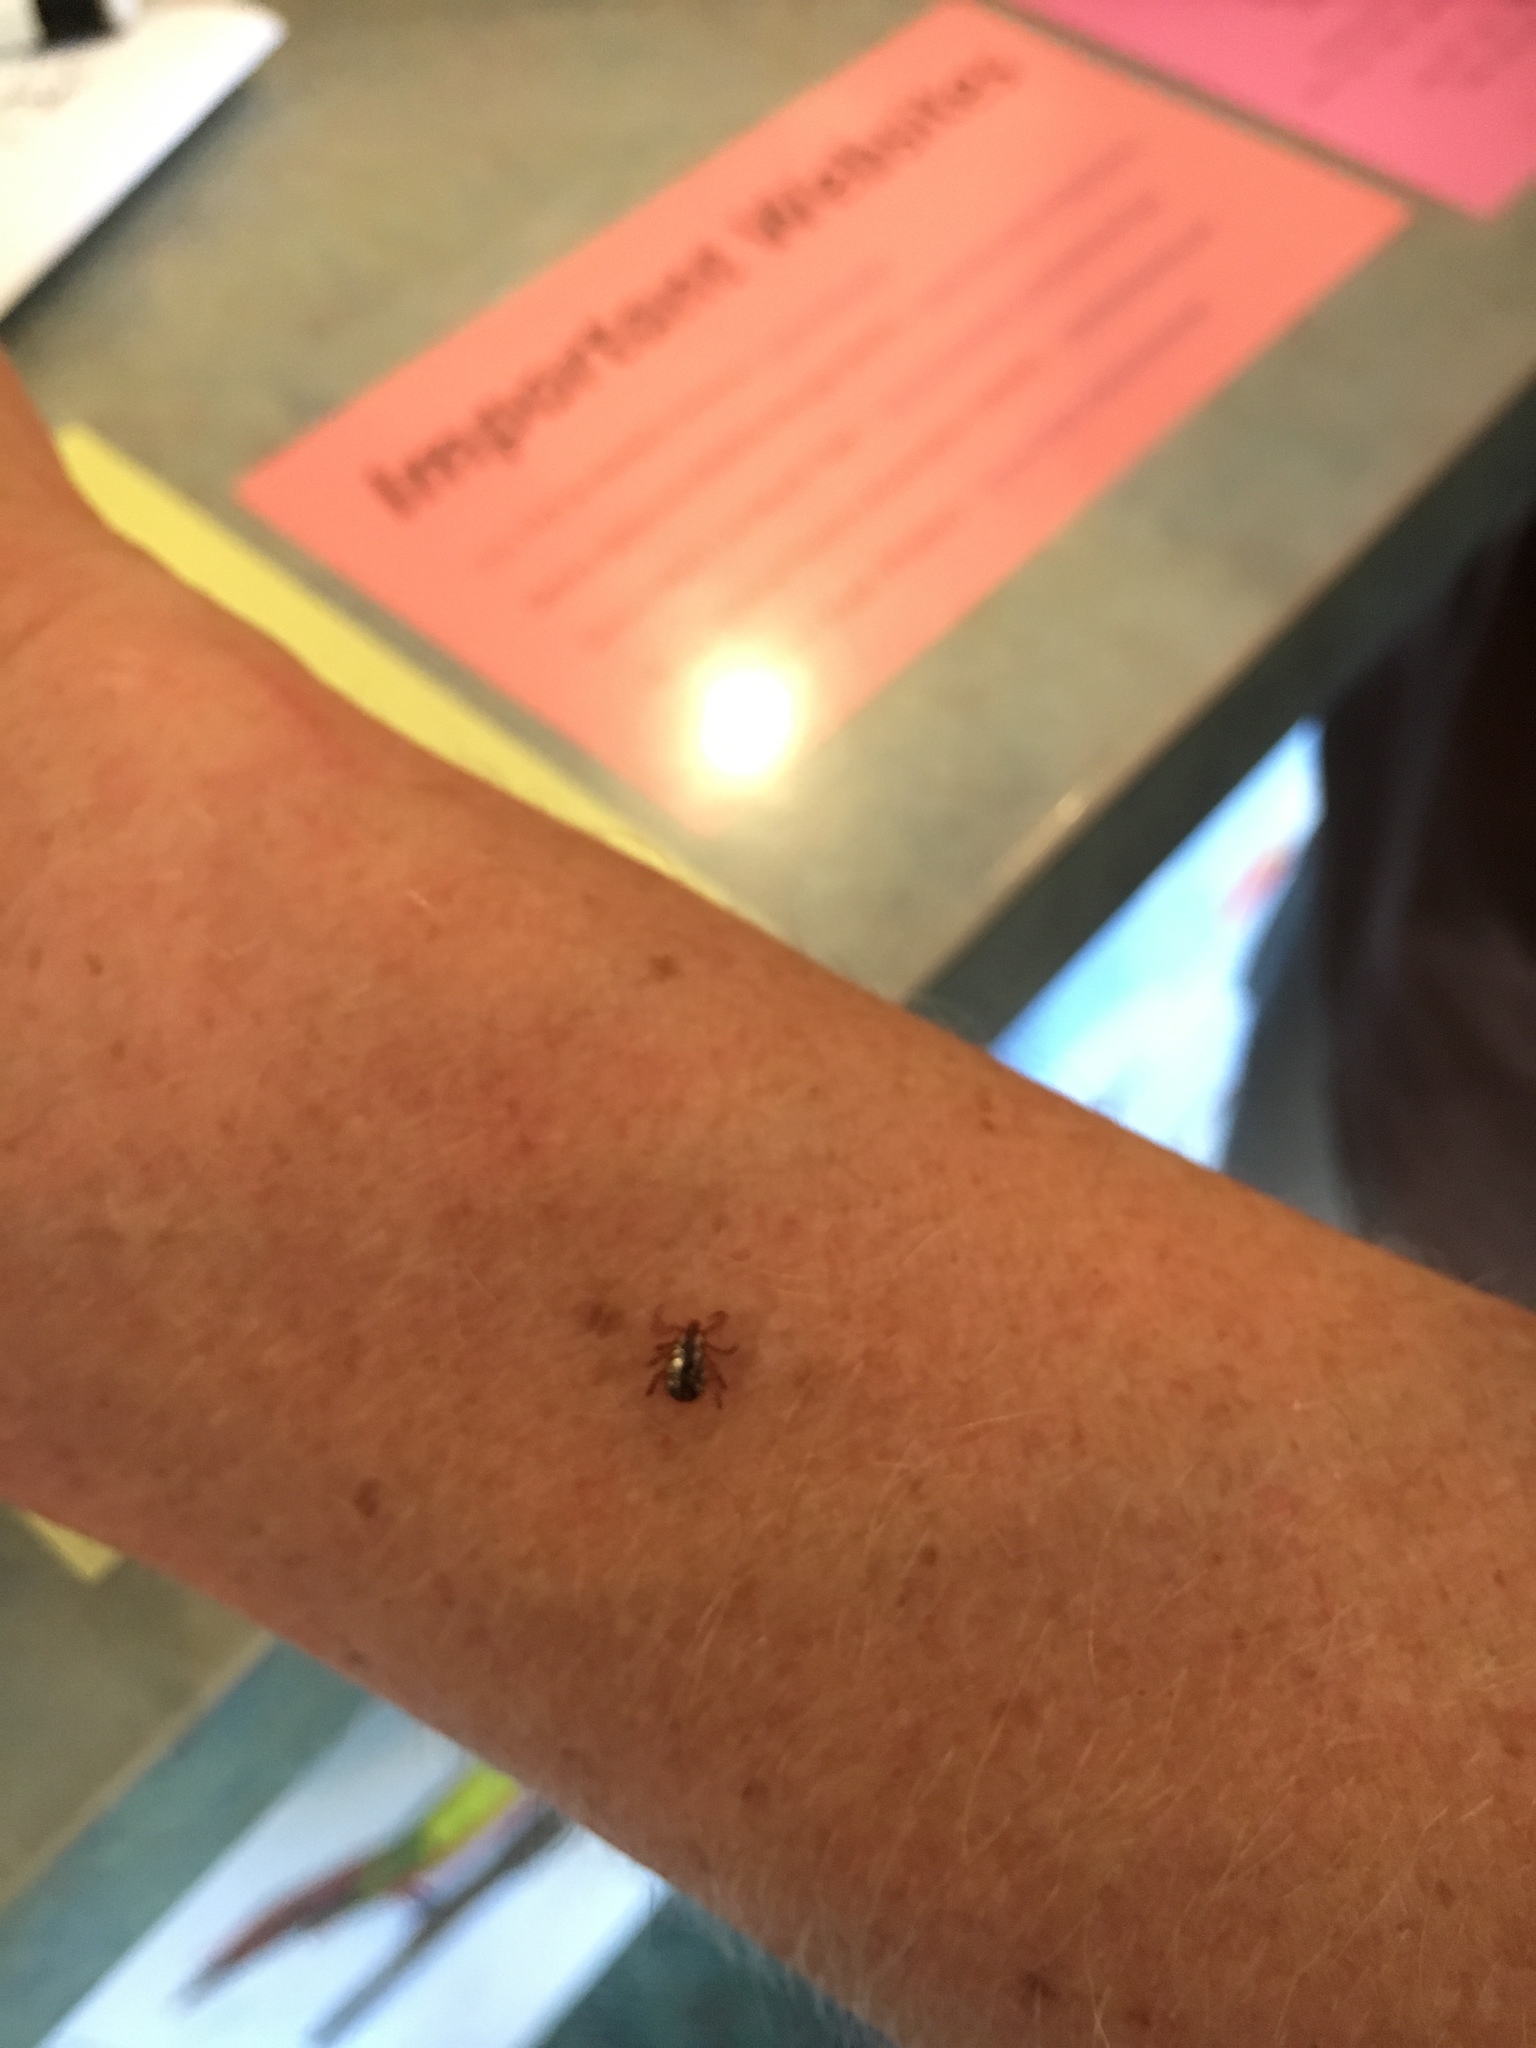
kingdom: Animalia
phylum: Arthropoda
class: Arachnida
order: Ixodida
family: Ixodidae
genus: Dermacentor
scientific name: Dermacentor variabilis
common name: American dog tick
